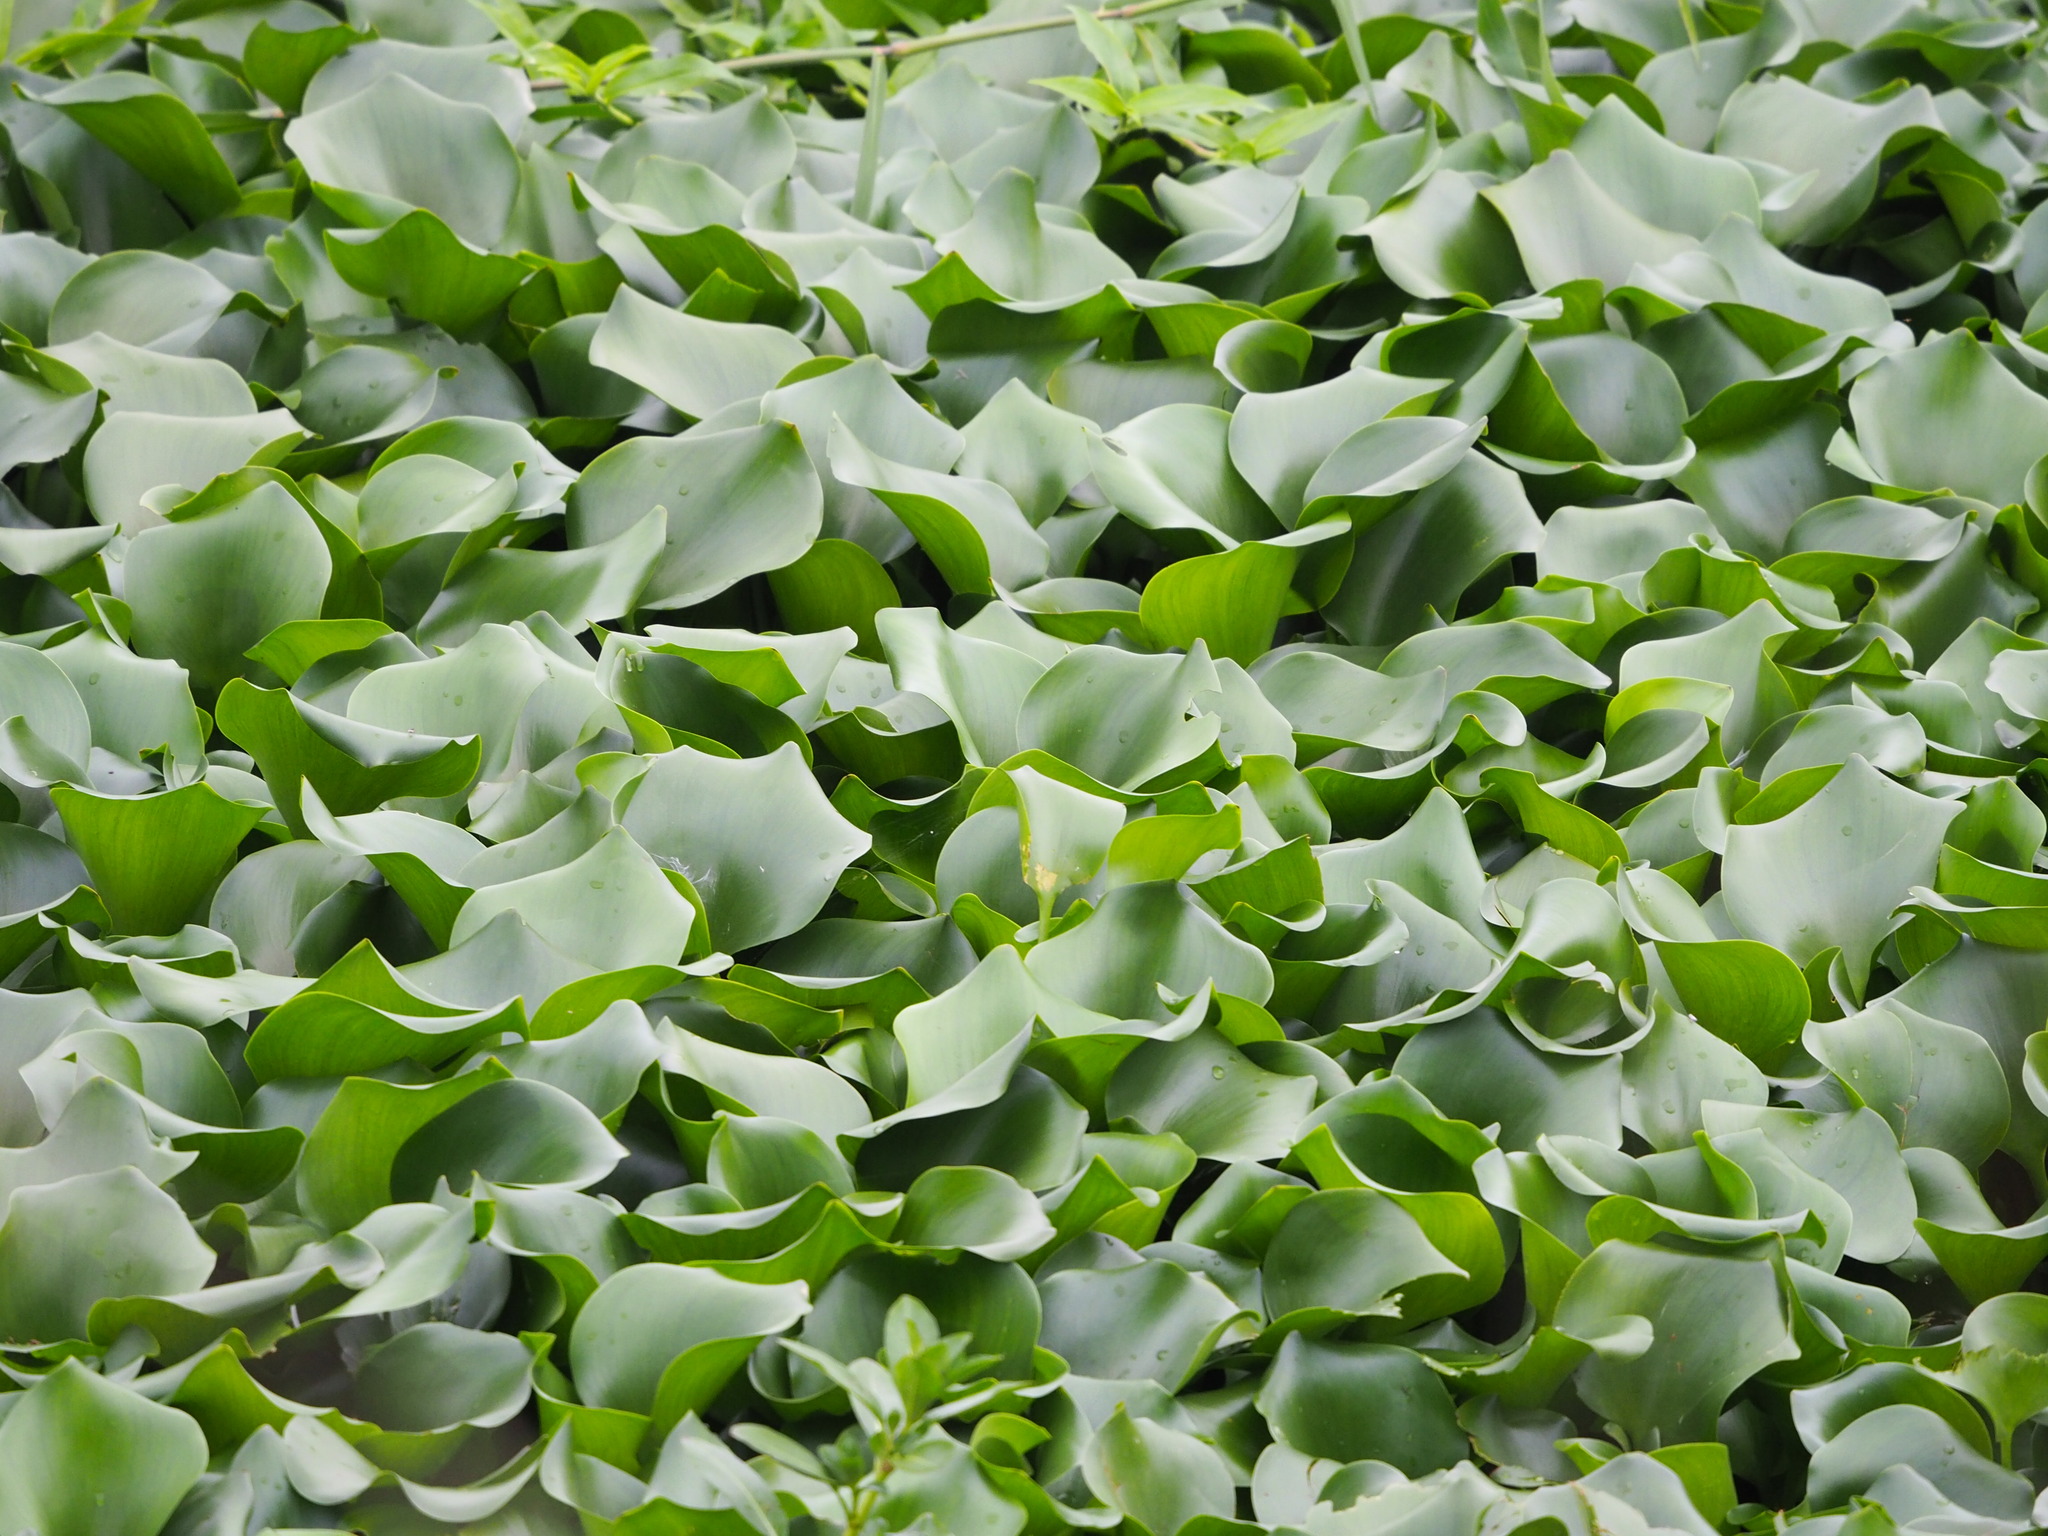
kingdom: Plantae
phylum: Tracheophyta
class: Liliopsida
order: Commelinales
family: Pontederiaceae
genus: Pontederia
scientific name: Pontederia crassipes
